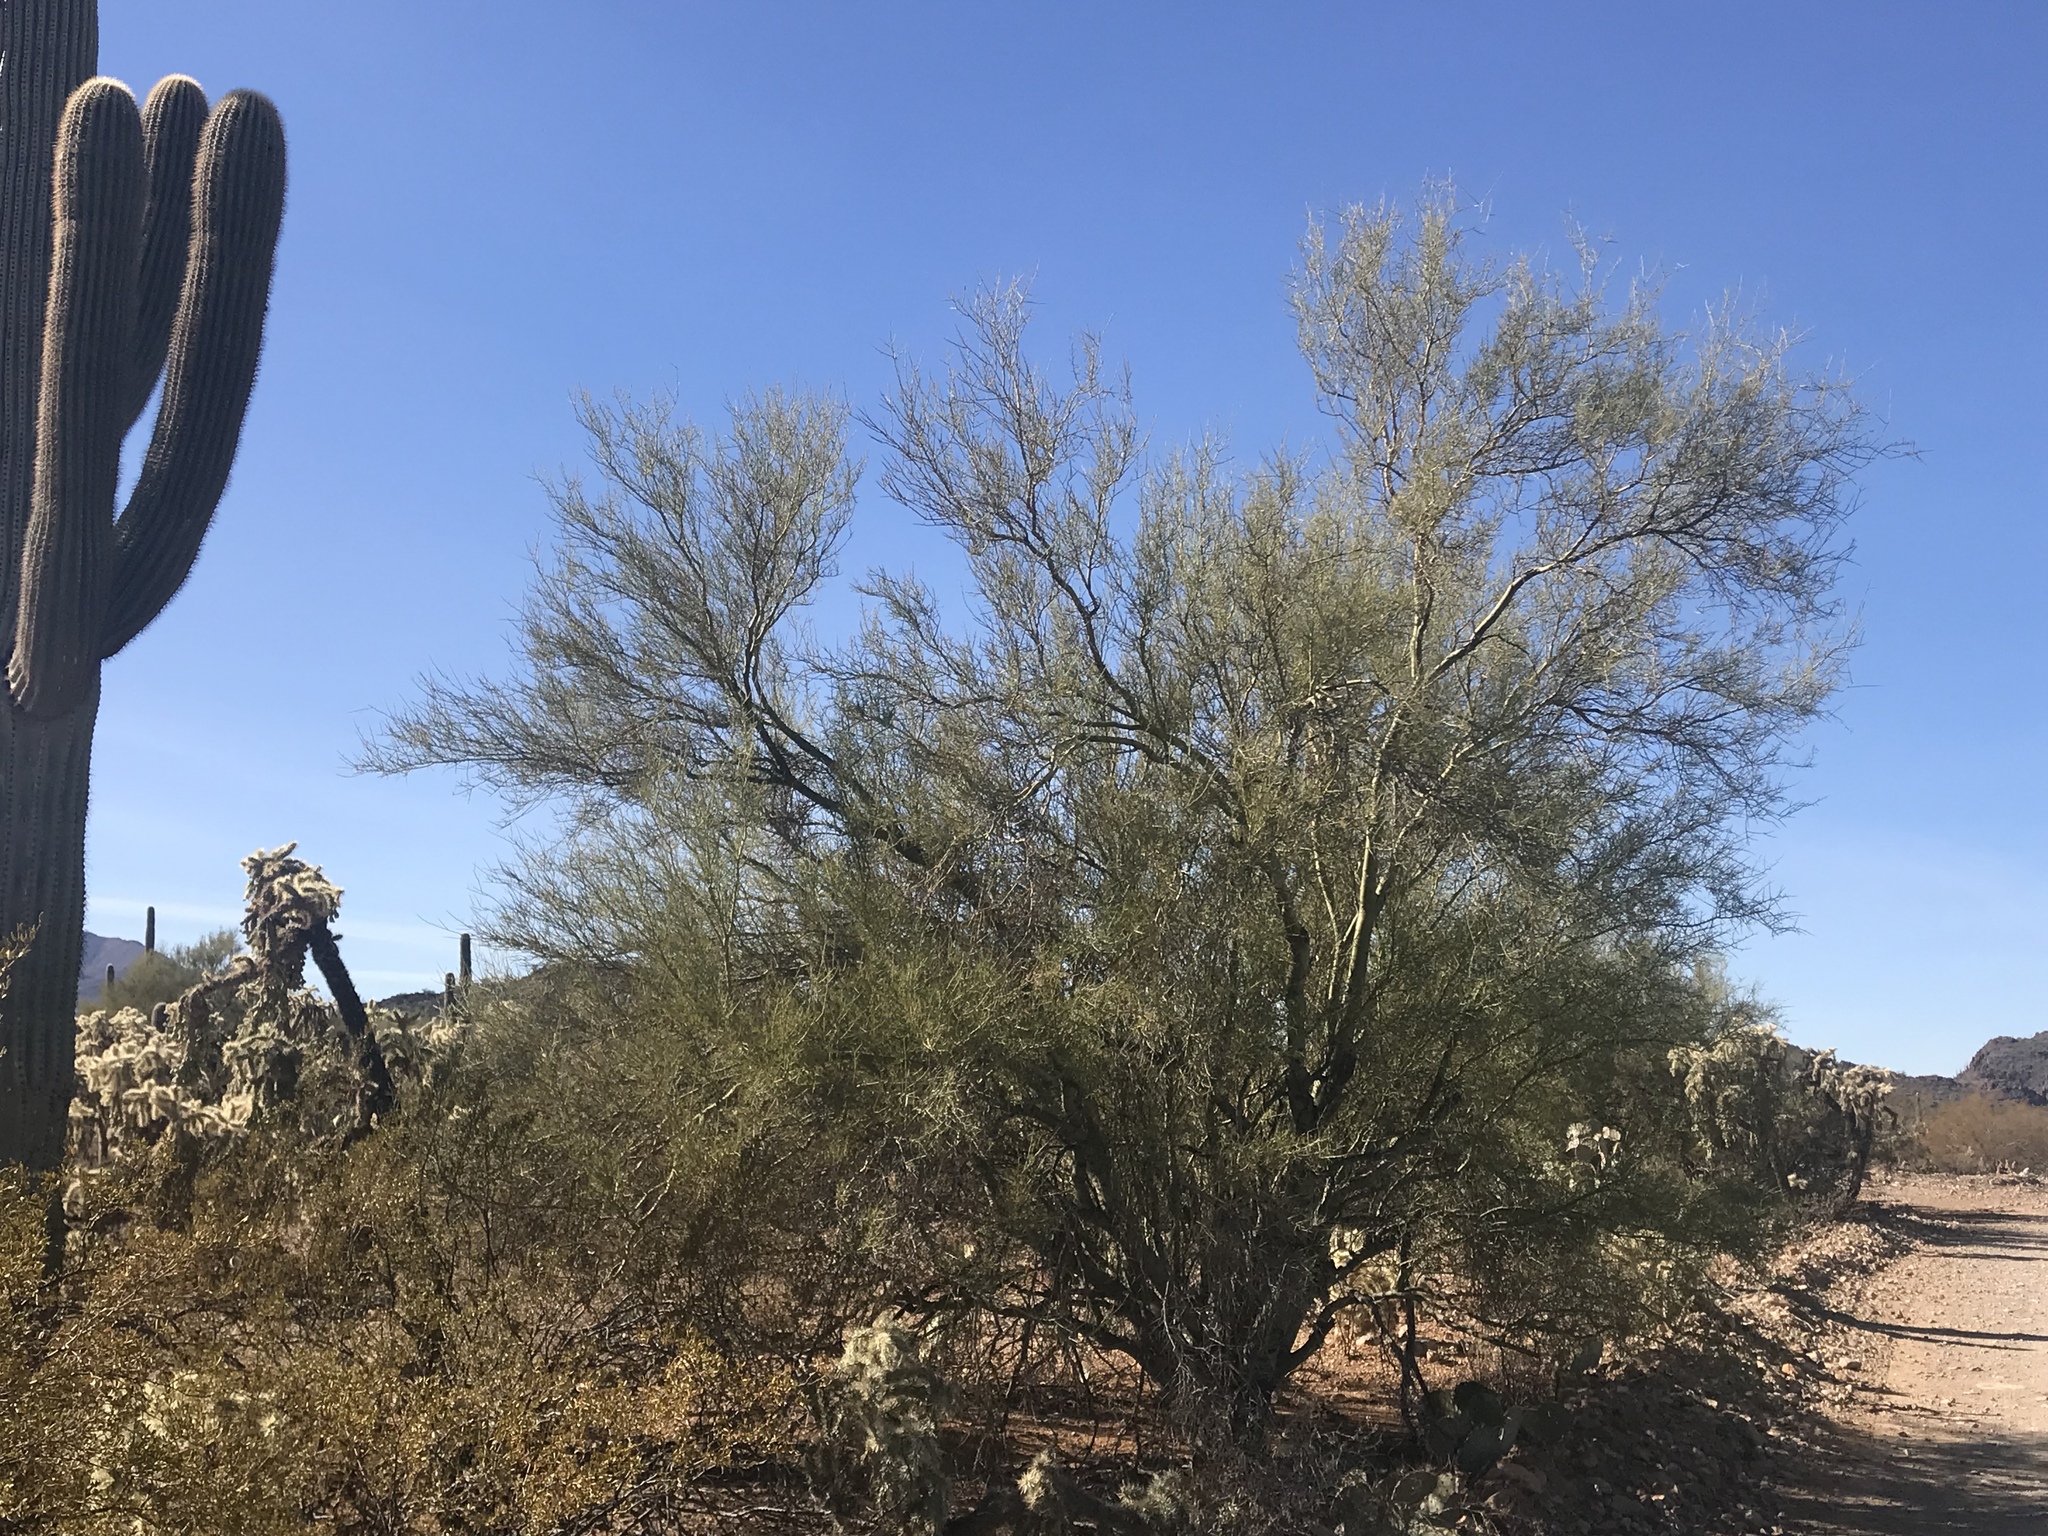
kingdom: Plantae
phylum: Tracheophyta
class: Magnoliopsida
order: Fabales
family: Fabaceae
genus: Parkinsonia
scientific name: Parkinsonia microphylla
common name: Yellow paloverde
